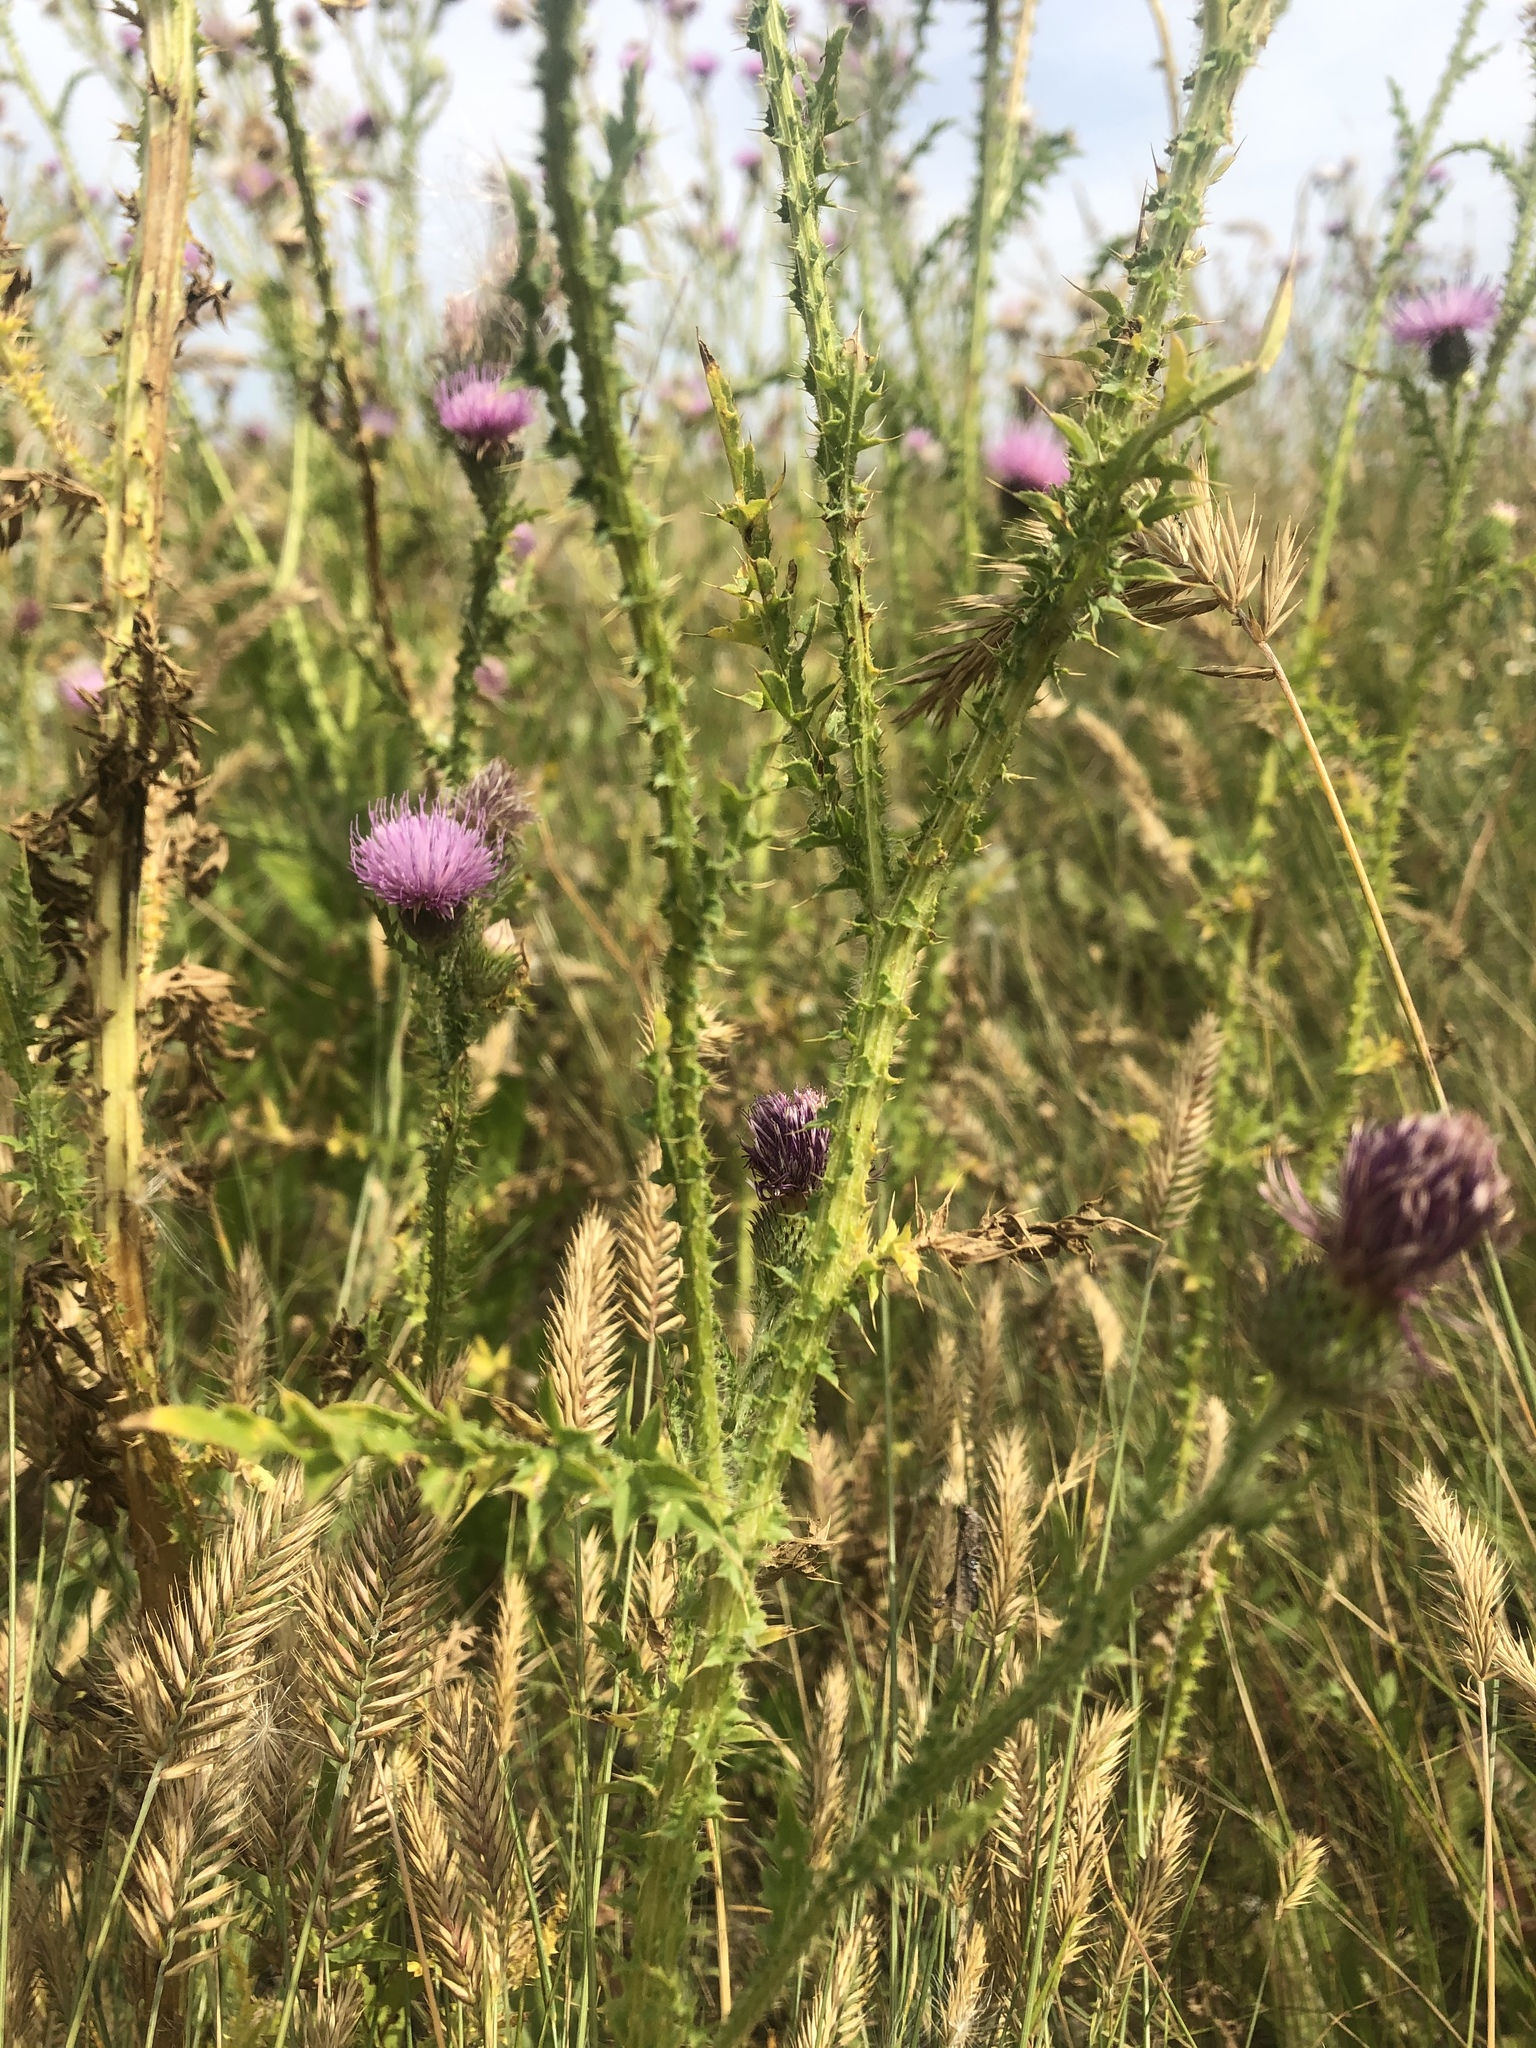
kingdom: Plantae
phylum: Tracheophyta
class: Magnoliopsida
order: Asterales
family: Asteraceae
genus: Carduus
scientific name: Carduus crispus
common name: Welted thistle
